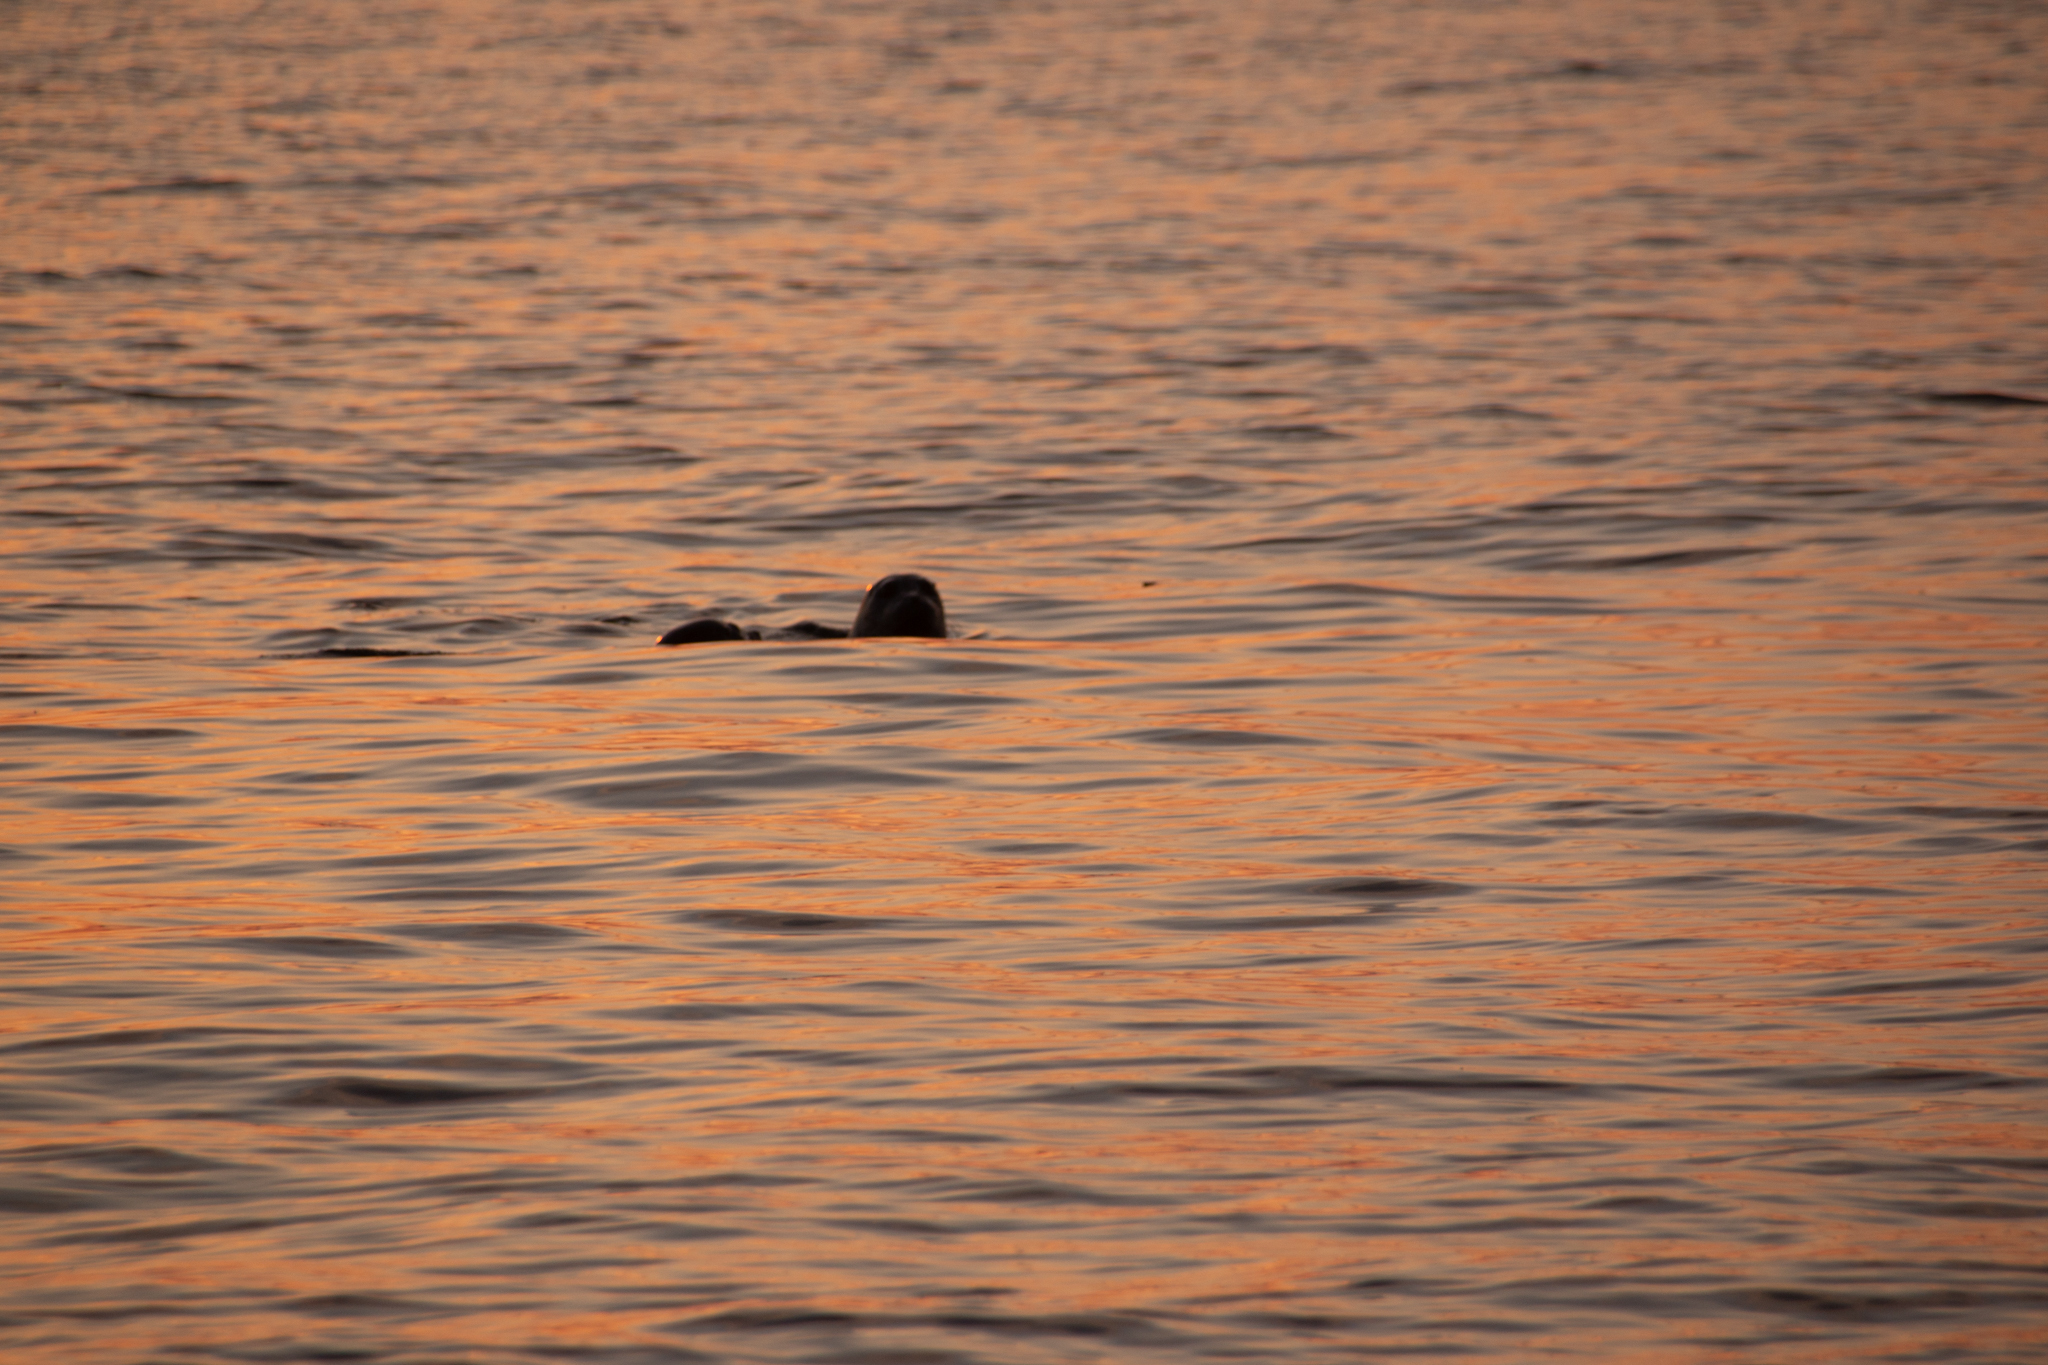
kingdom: Animalia
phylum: Chordata
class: Mammalia
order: Carnivora
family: Phocidae
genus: Phoca
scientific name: Phoca vitulina
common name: Harbor seal
